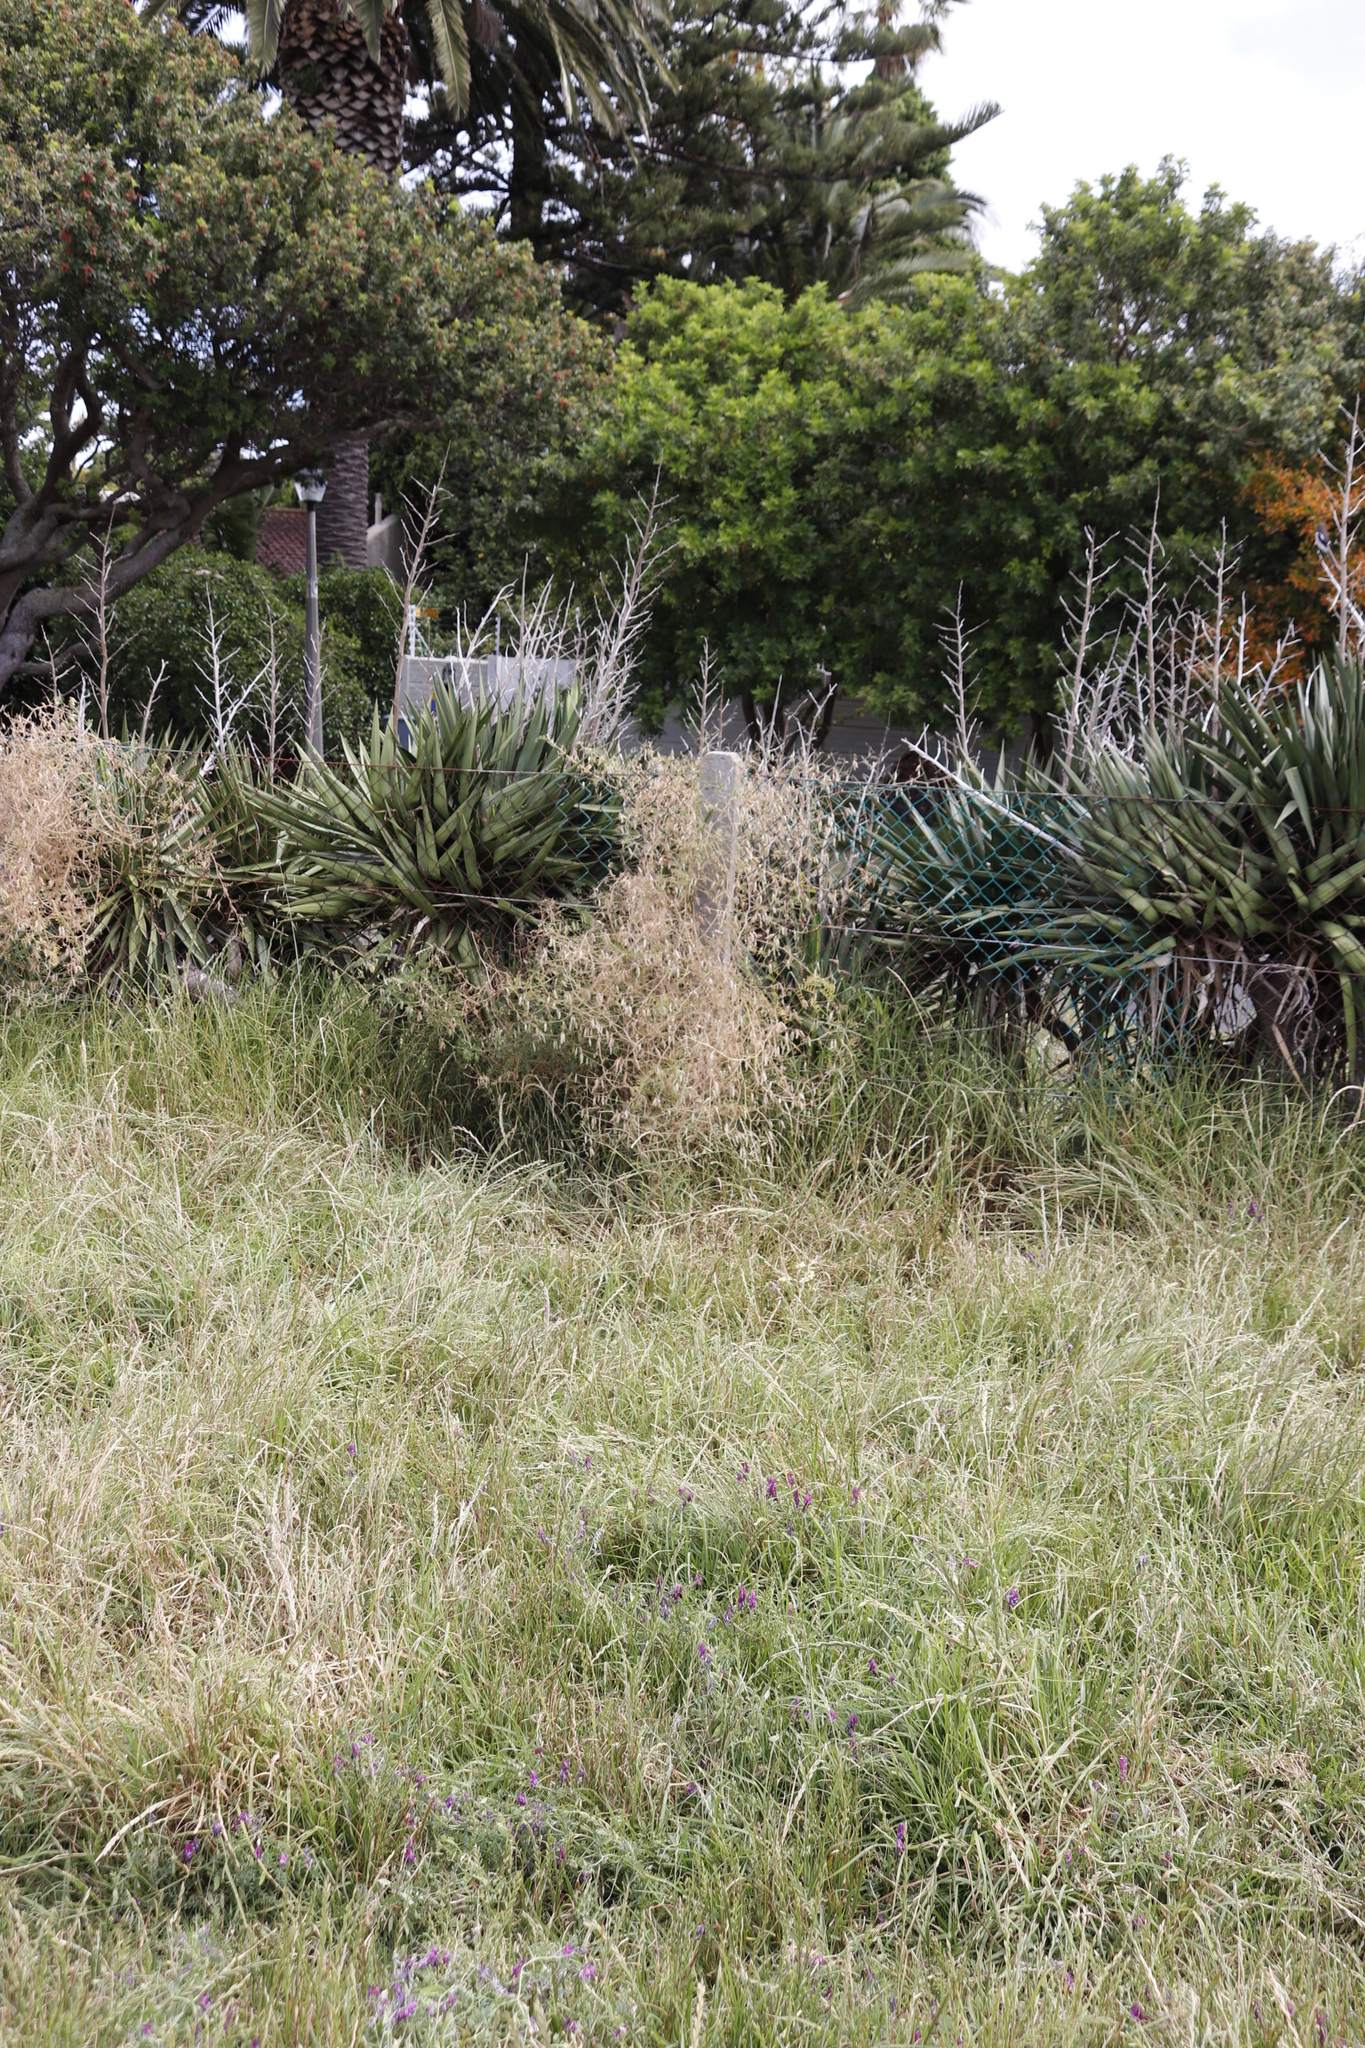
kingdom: Plantae
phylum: Tracheophyta
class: Liliopsida
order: Asparagales
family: Asparagaceae
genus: Yucca
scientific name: Yucca gloriosa
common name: Spanish-dagger
